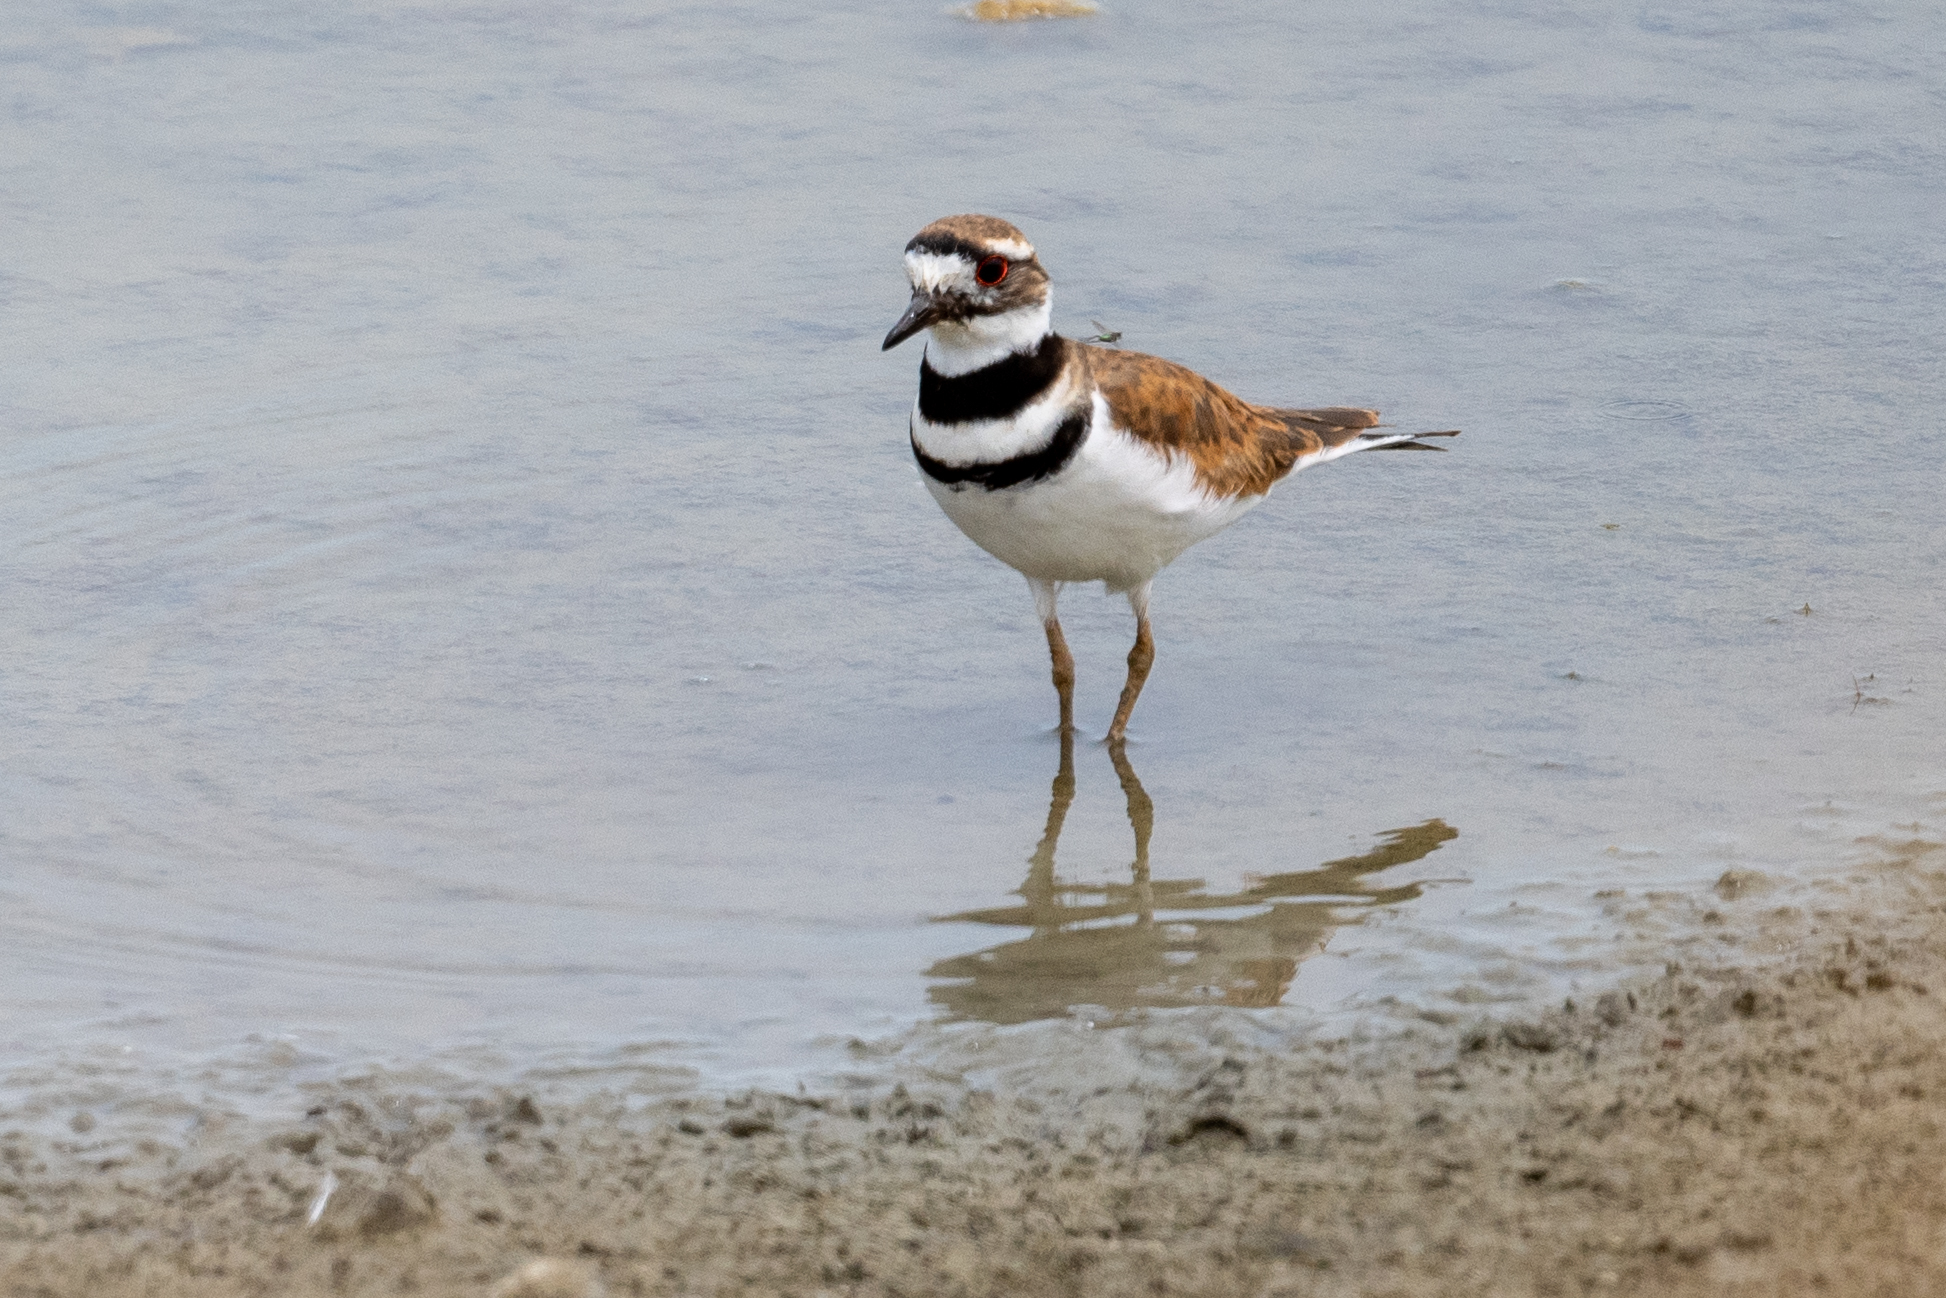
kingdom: Animalia
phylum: Chordata
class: Aves
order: Charadriiformes
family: Charadriidae
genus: Charadrius
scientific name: Charadrius vociferus
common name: Killdeer
